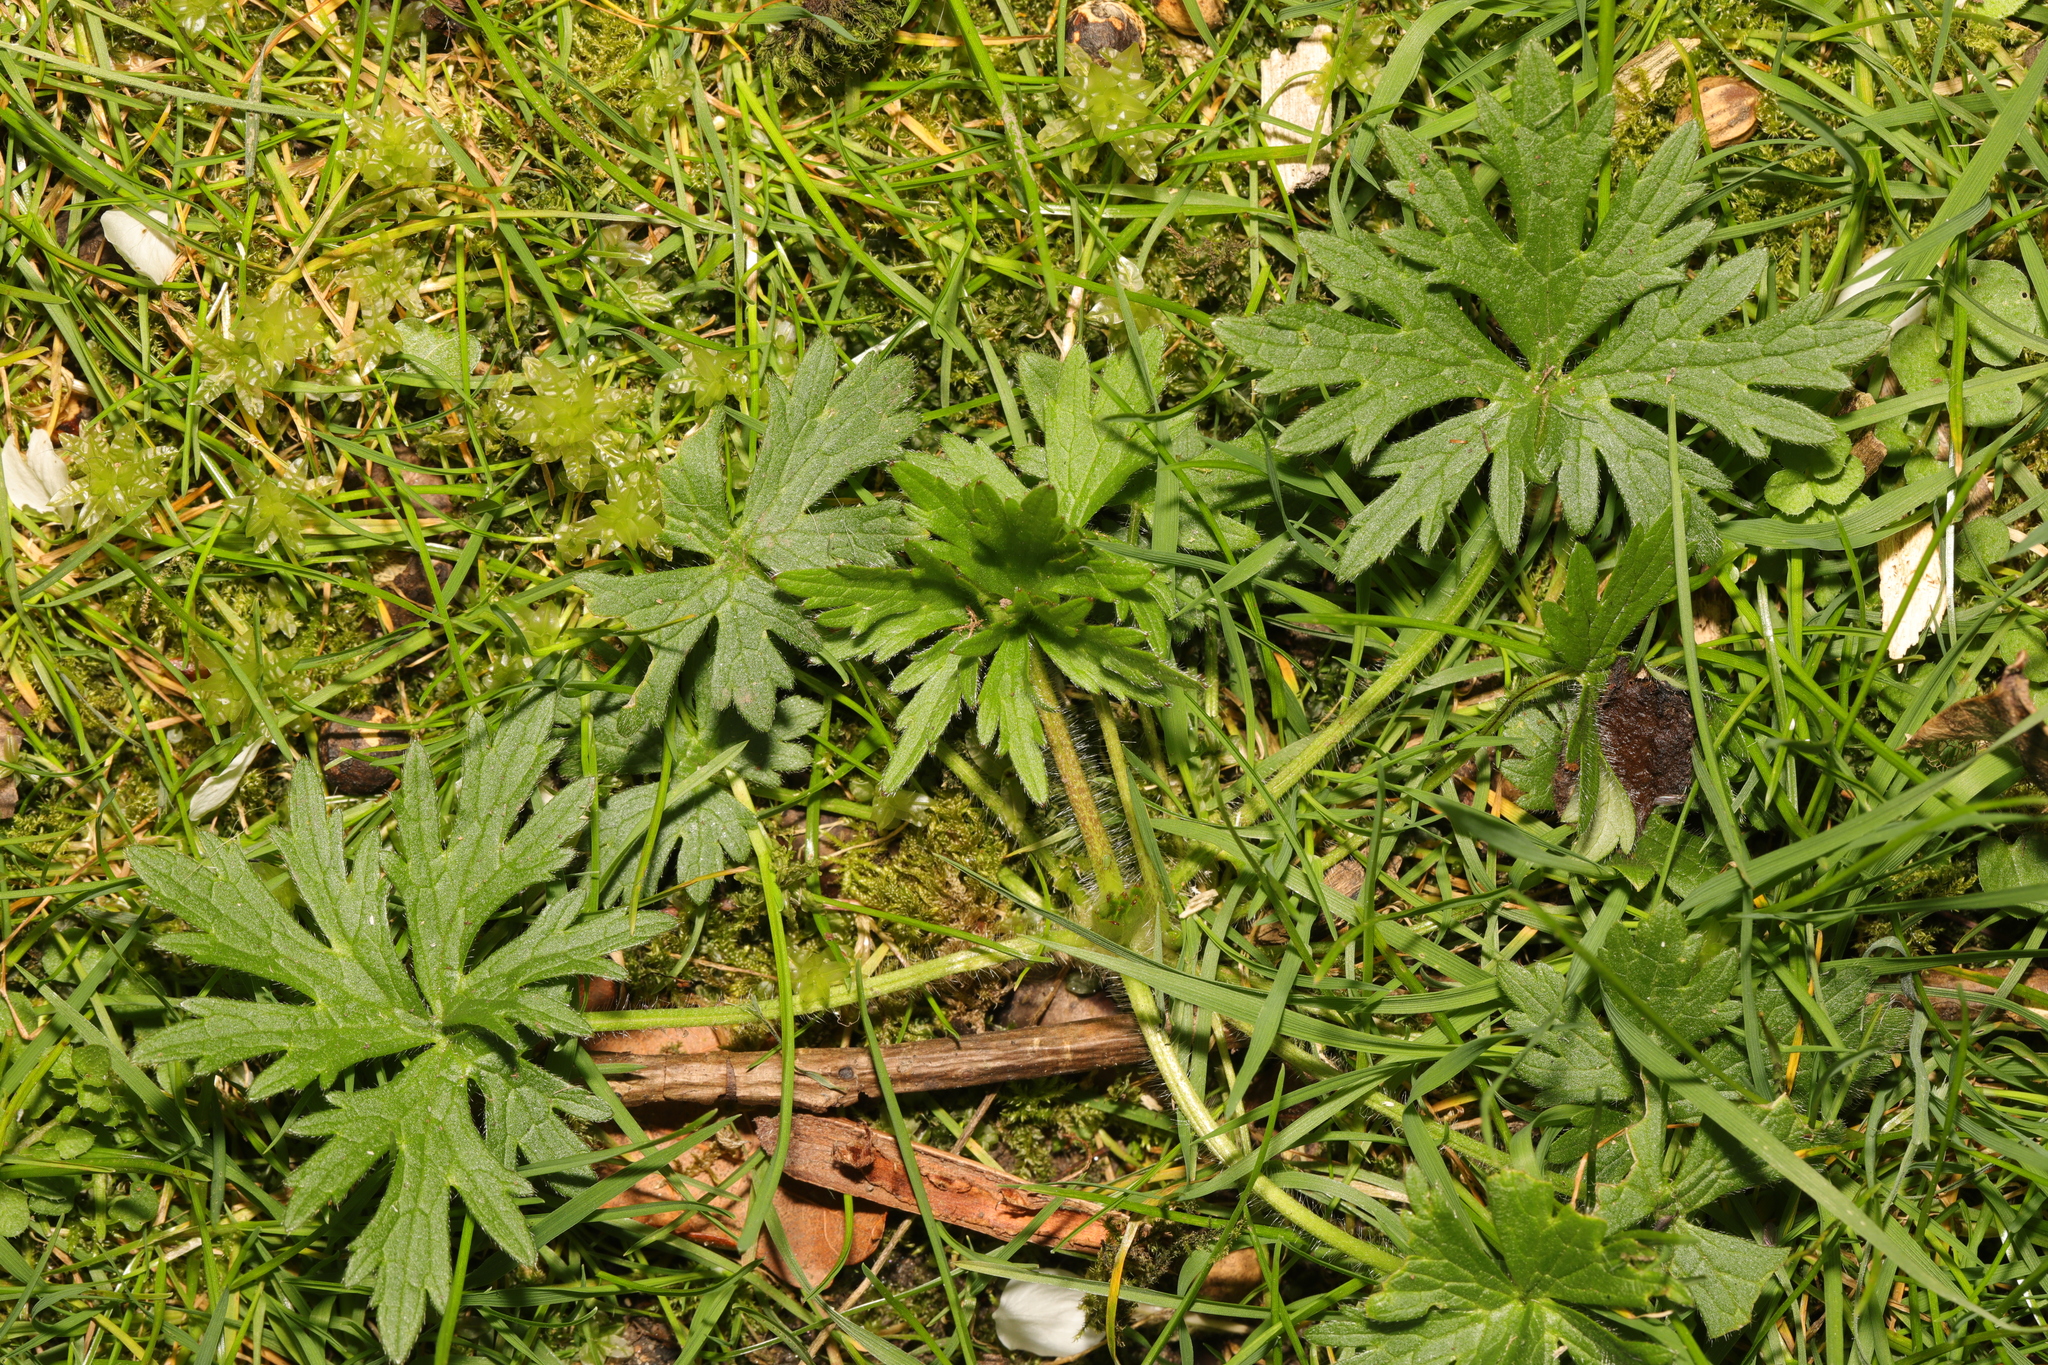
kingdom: Plantae
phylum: Tracheophyta
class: Magnoliopsida
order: Ranunculales
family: Ranunculaceae
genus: Ranunculus
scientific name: Ranunculus acris
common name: Meadow buttercup
